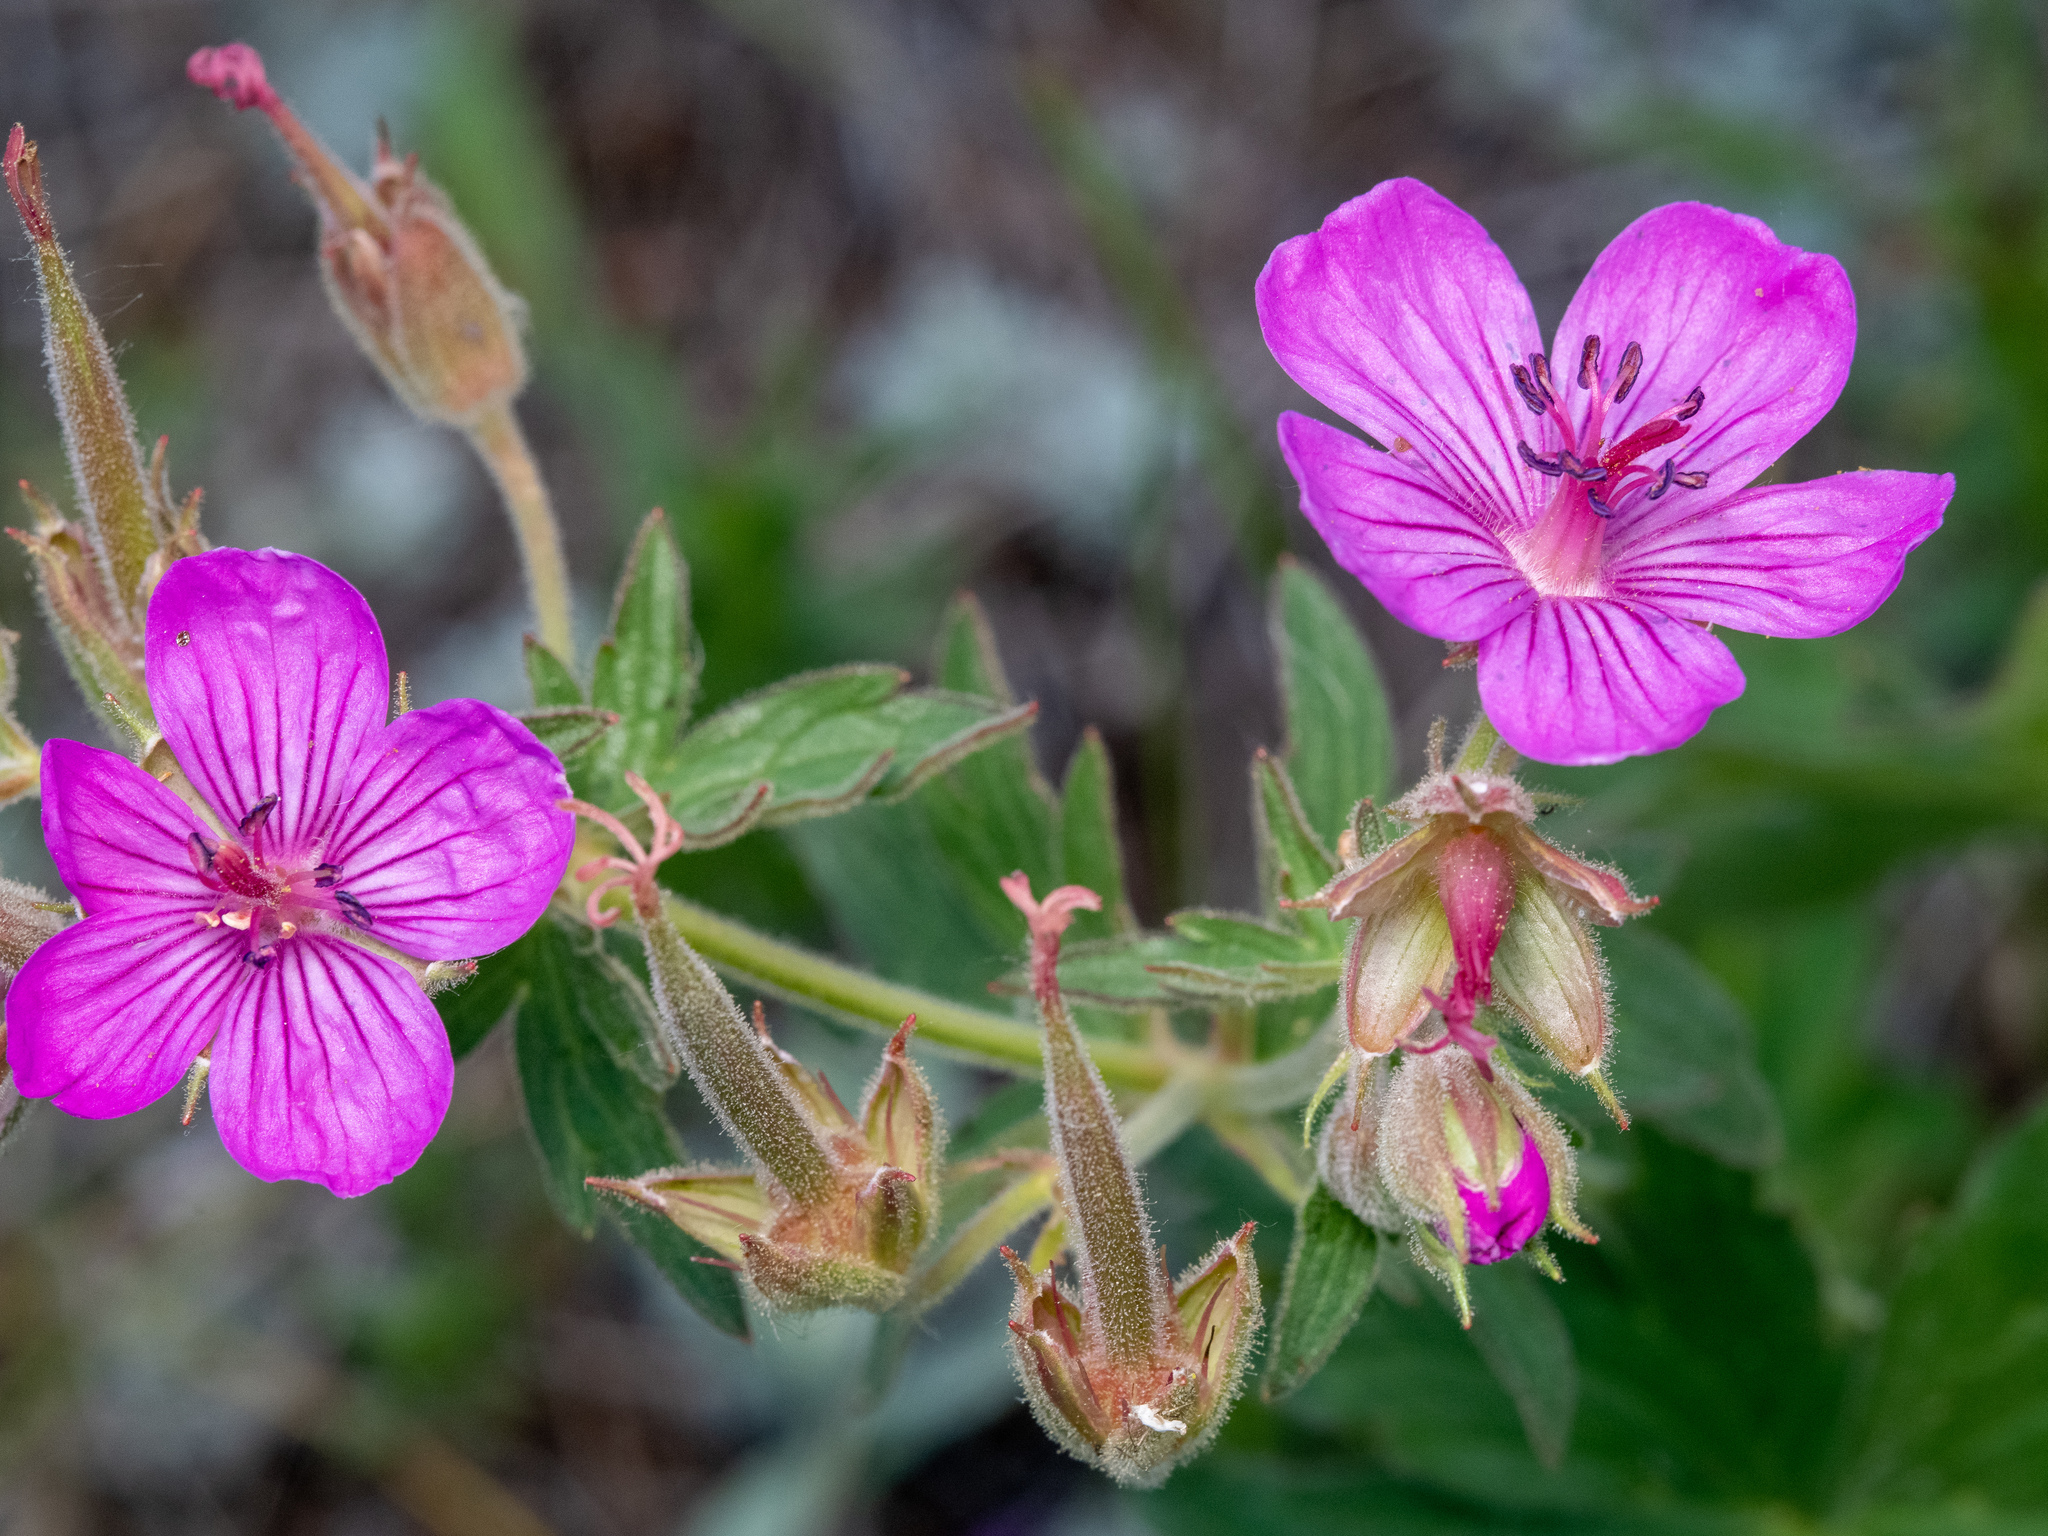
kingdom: Plantae
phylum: Tracheophyta
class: Magnoliopsida
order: Geraniales
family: Geraniaceae
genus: Geranium
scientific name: Geranium viscosissimum
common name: Purple geranium
